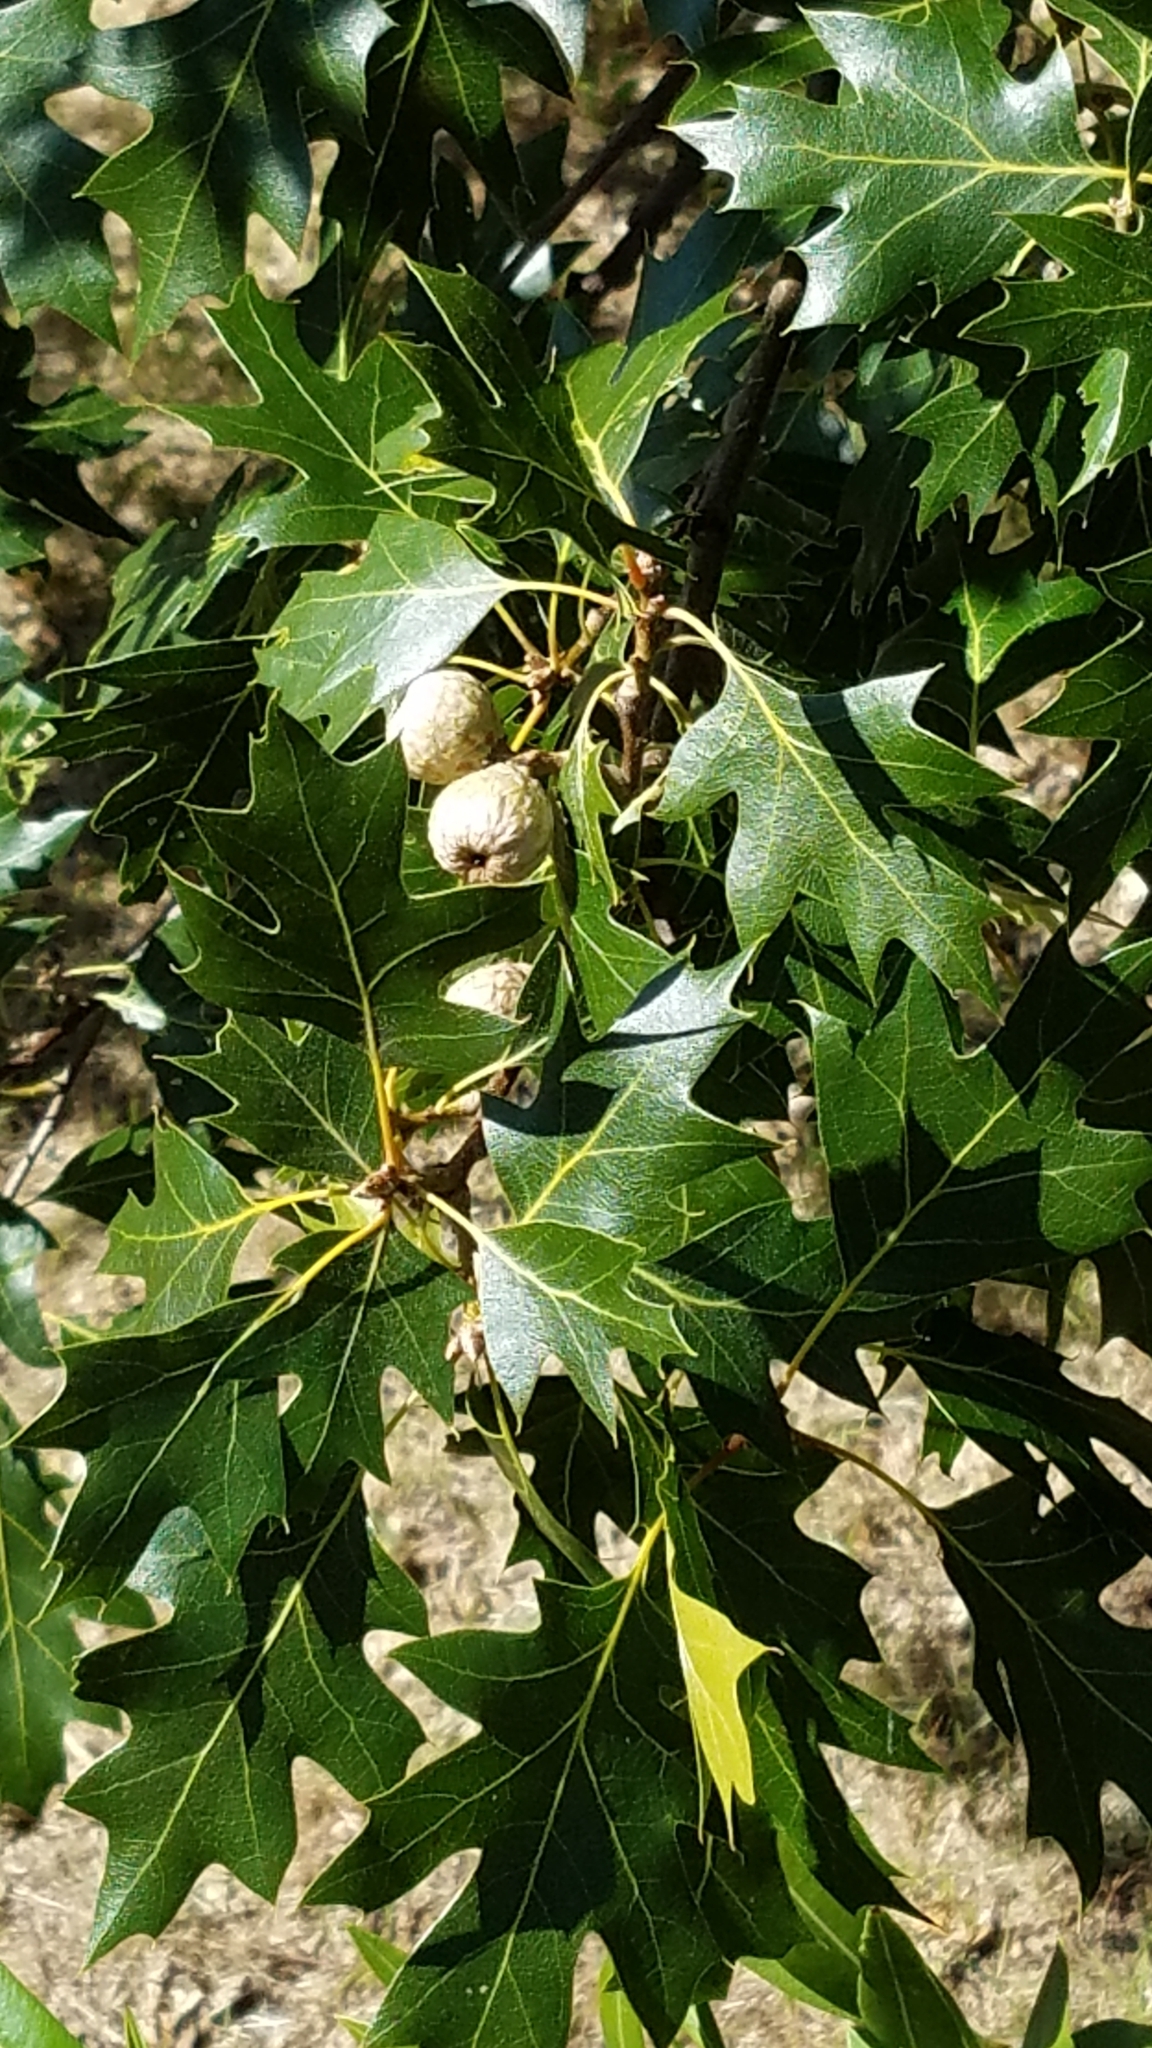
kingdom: Plantae
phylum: Tracheophyta
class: Magnoliopsida
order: Fagales
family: Fagaceae
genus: Quercus
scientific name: Quercus kelloggii
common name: California black oak
